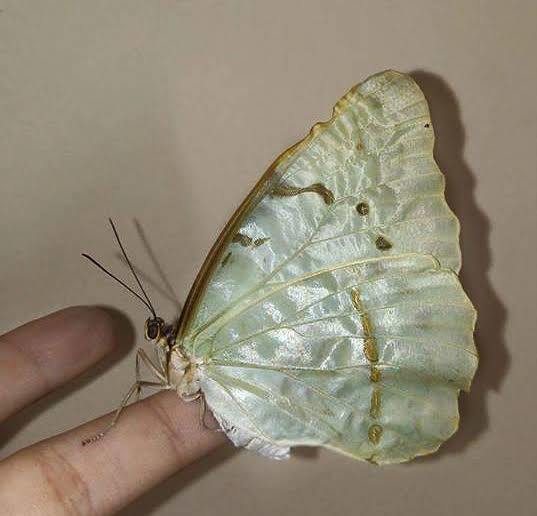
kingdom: Animalia
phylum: Arthropoda
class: Insecta
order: Lepidoptera
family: Nymphalidae
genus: Morpho
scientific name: Morpho epistrophus
